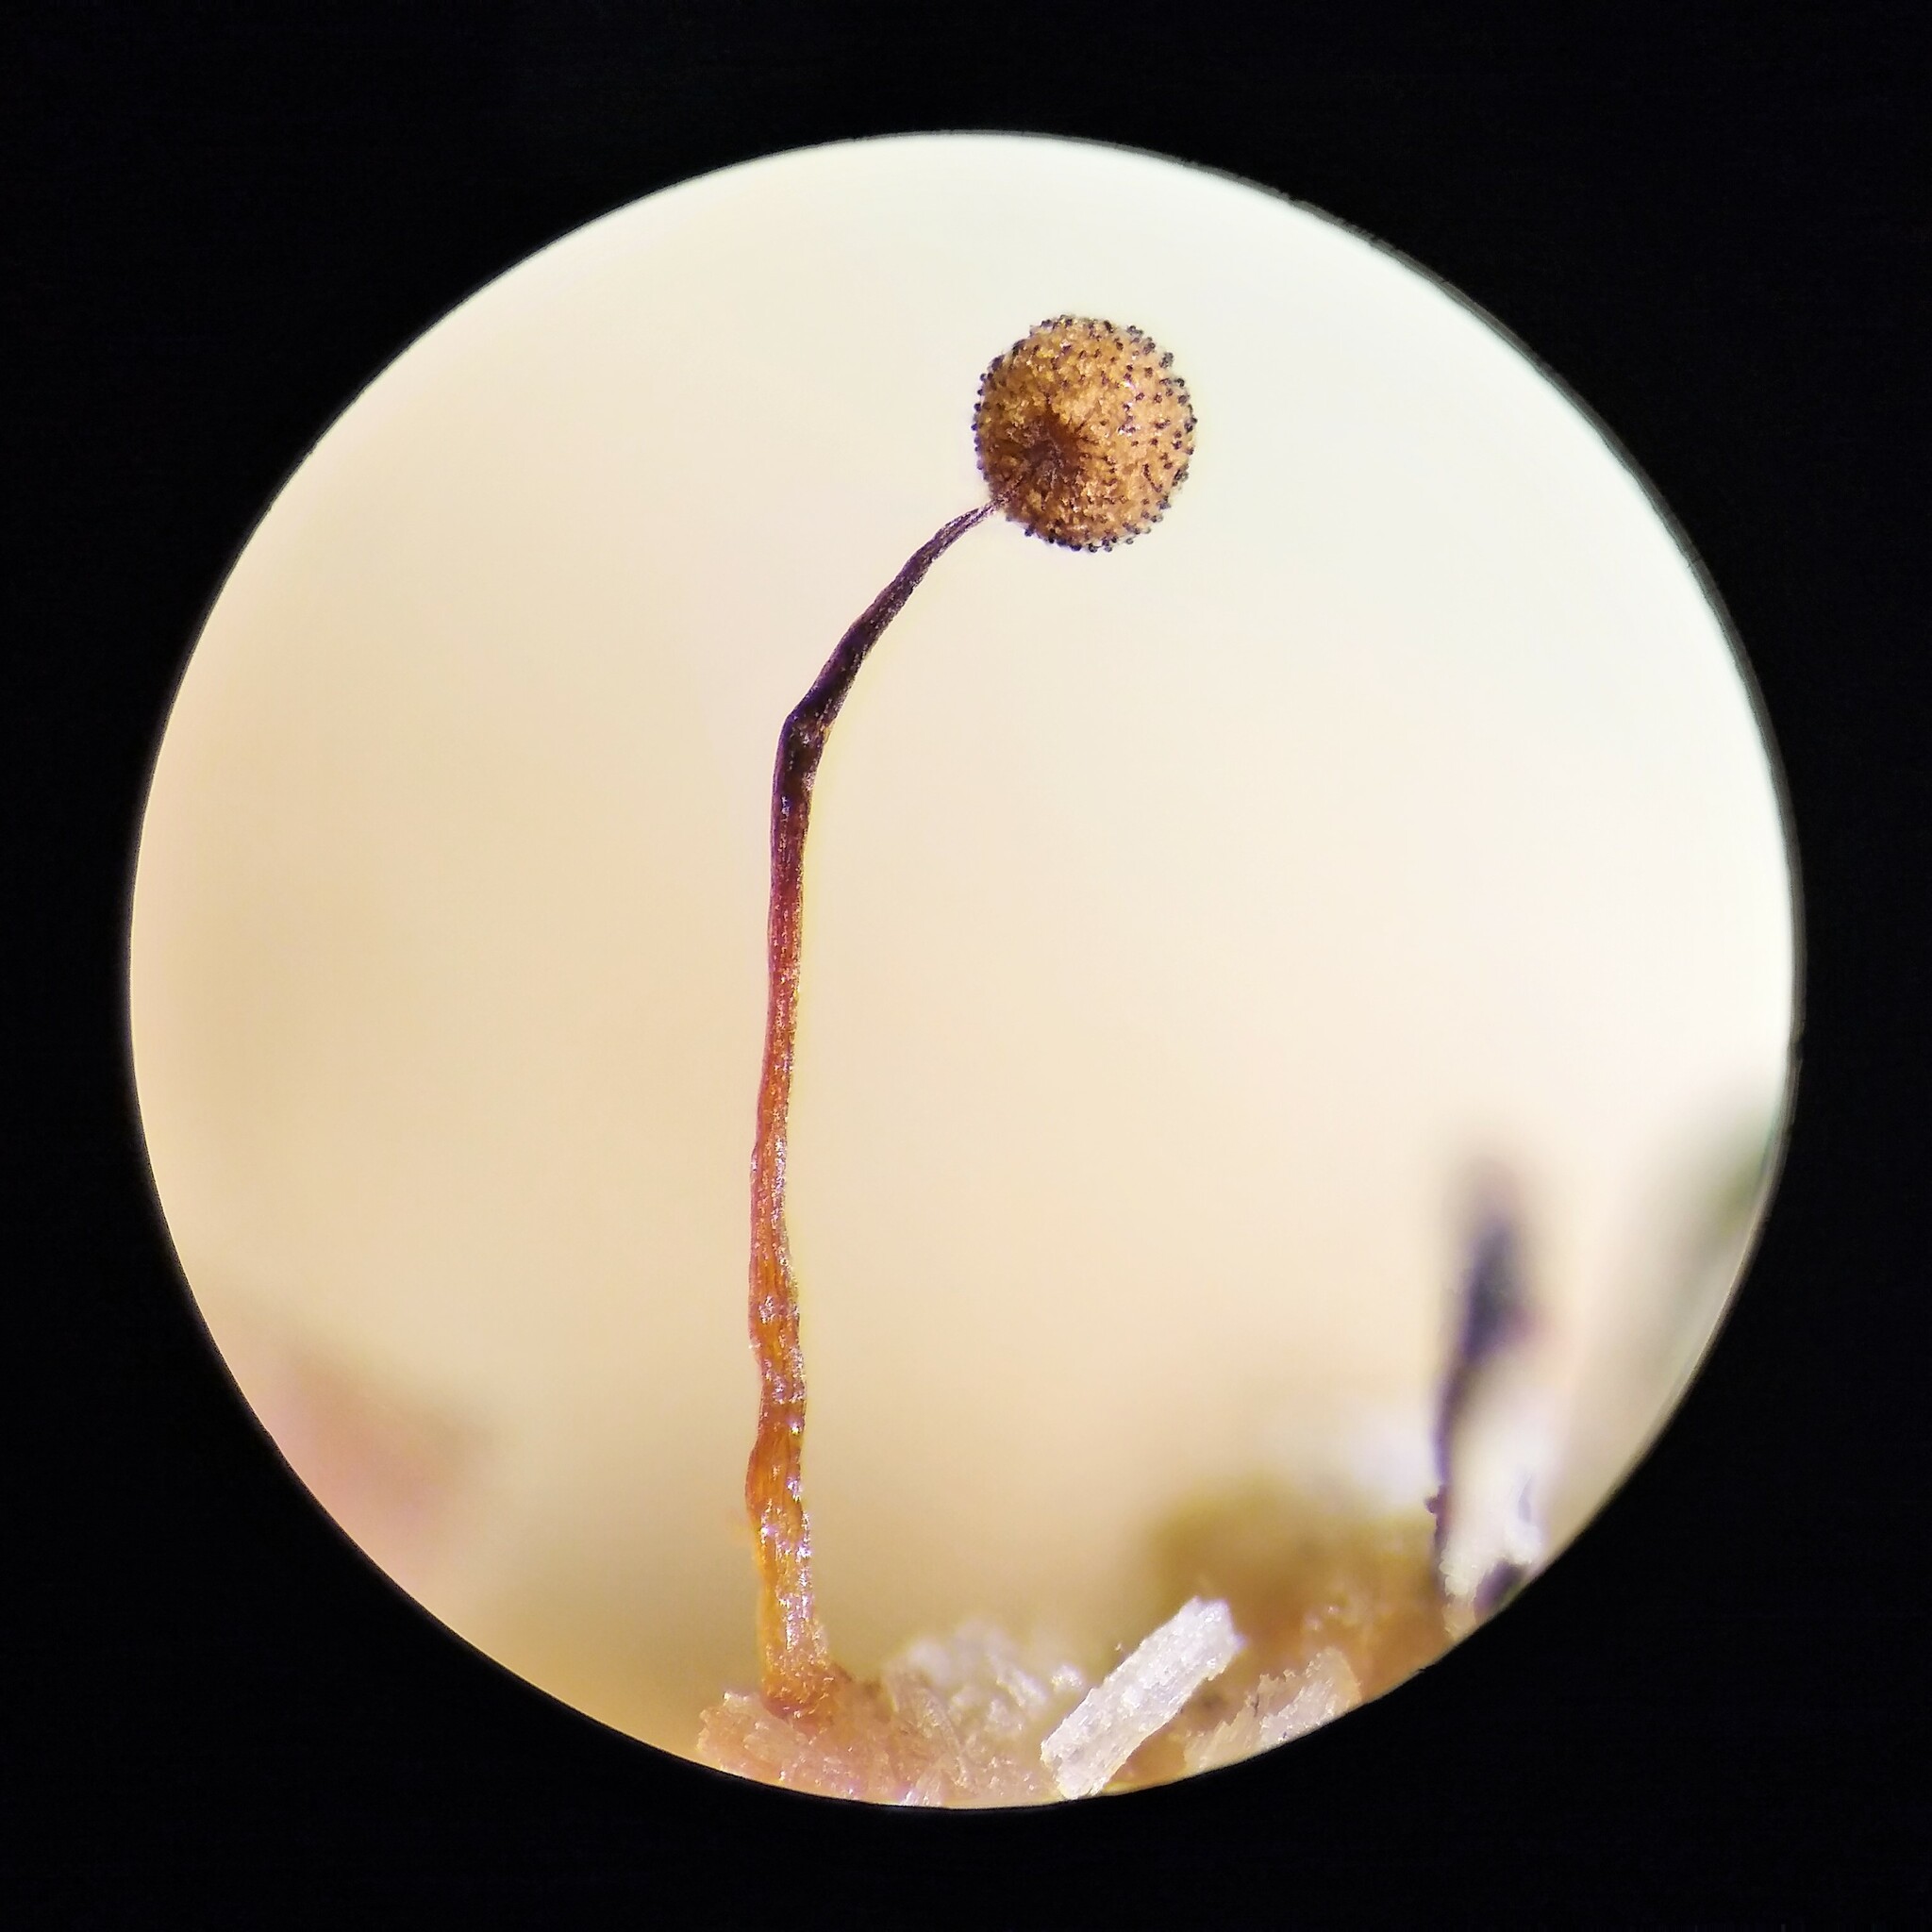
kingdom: Protozoa
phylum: Mycetozoa
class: Myxomycetes
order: Cribrariales
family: Cribrariaceae
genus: Cribraria
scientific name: Cribraria microcarpa
